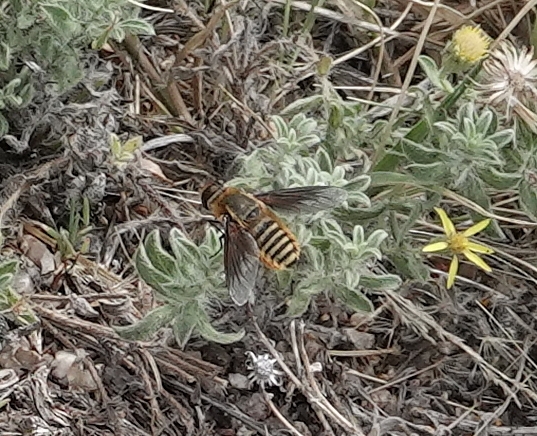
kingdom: Animalia
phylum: Arthropoda
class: Insecta
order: Diptera
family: Bombyliidae
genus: Poecilanthrax
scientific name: Poecilanthrax lucifer
